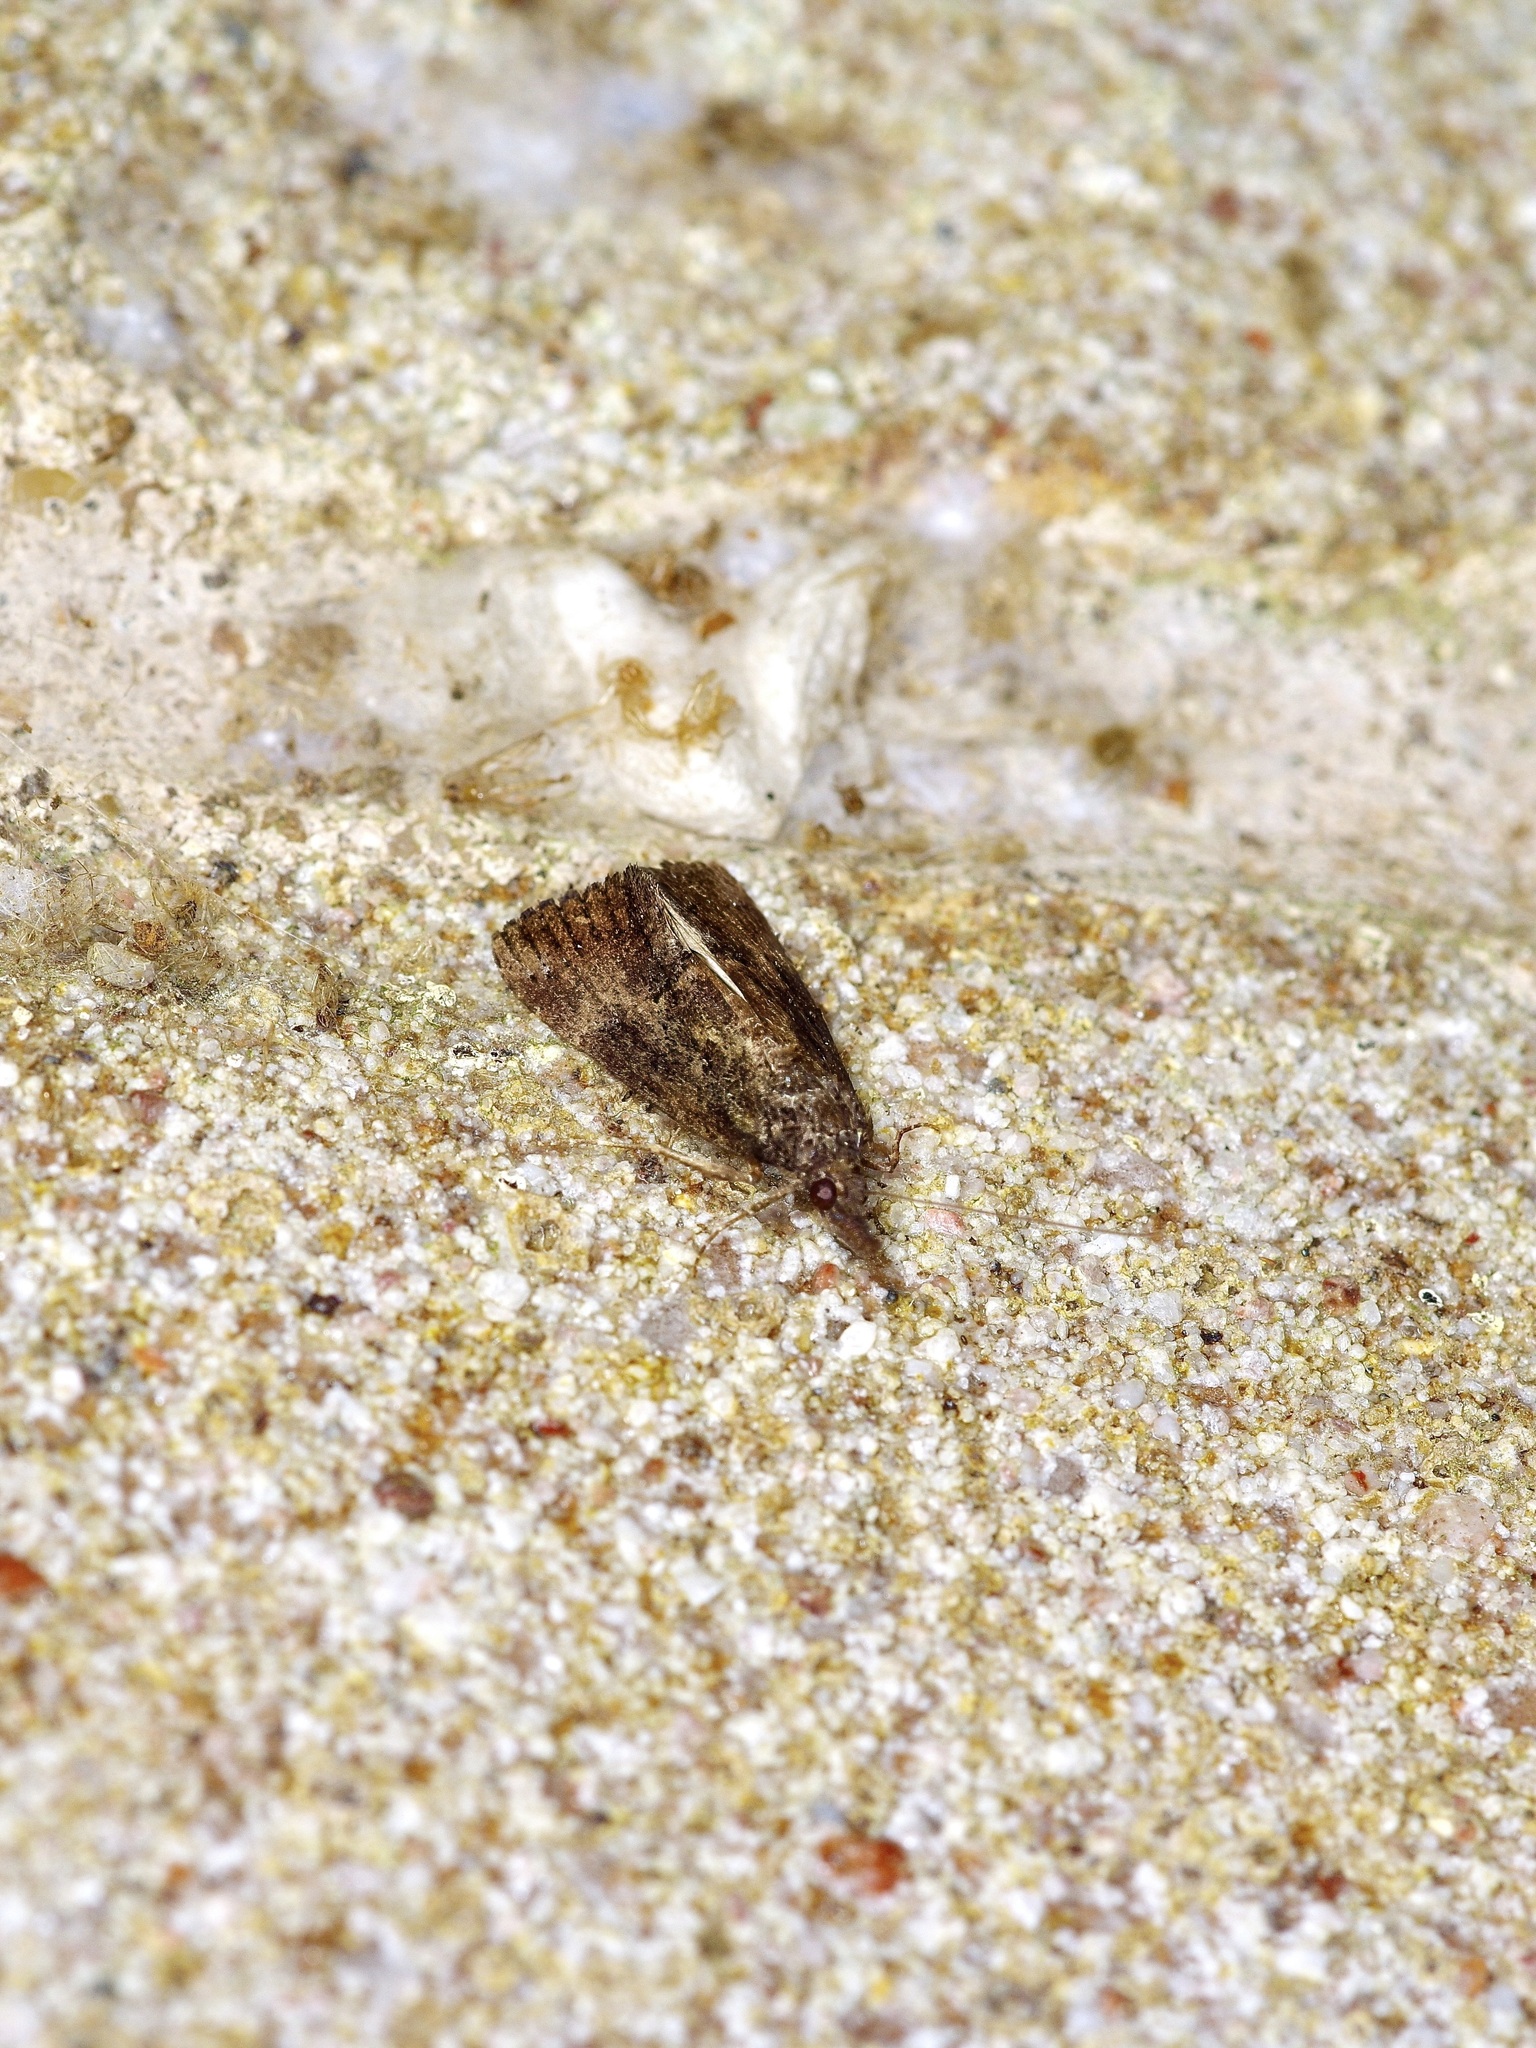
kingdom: Animalia
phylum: Arthropoda
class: Insecta
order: Lepidoptera
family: Erebidae
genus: Hypena
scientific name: Hypena scabra
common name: Green cloverworm
